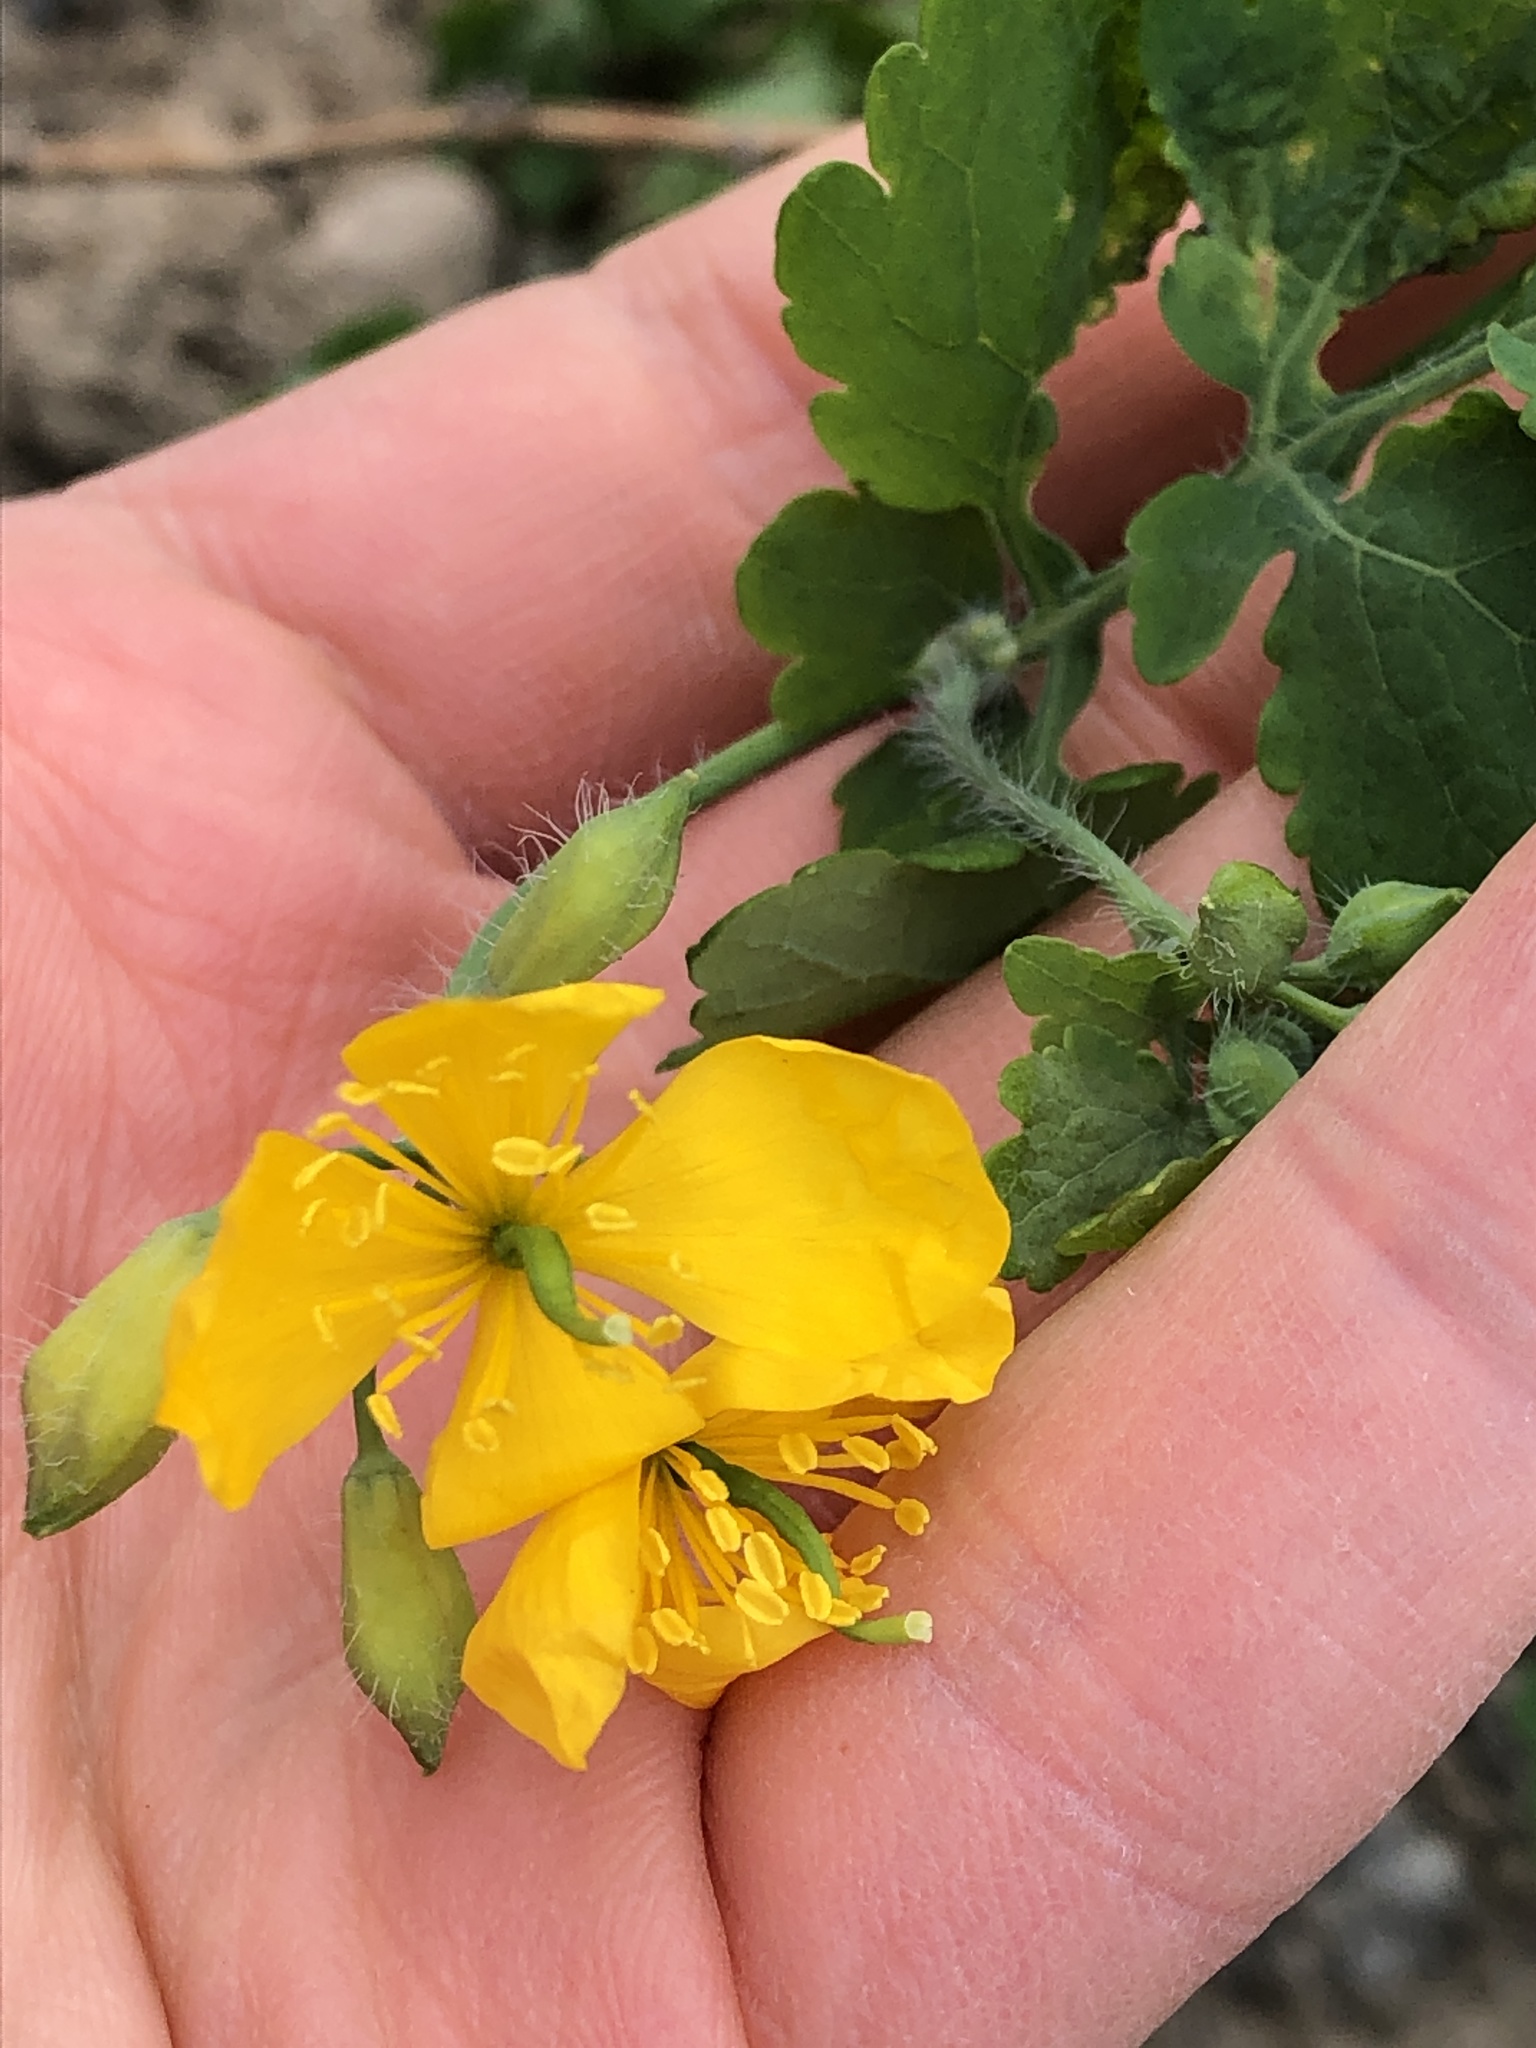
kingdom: Plantae
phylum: Tracheophyta
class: Magnoliopsida
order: Ranunculales
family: Papaveraceae
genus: Chelidonium
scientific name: Chelidonium majus
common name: Greater celandine
